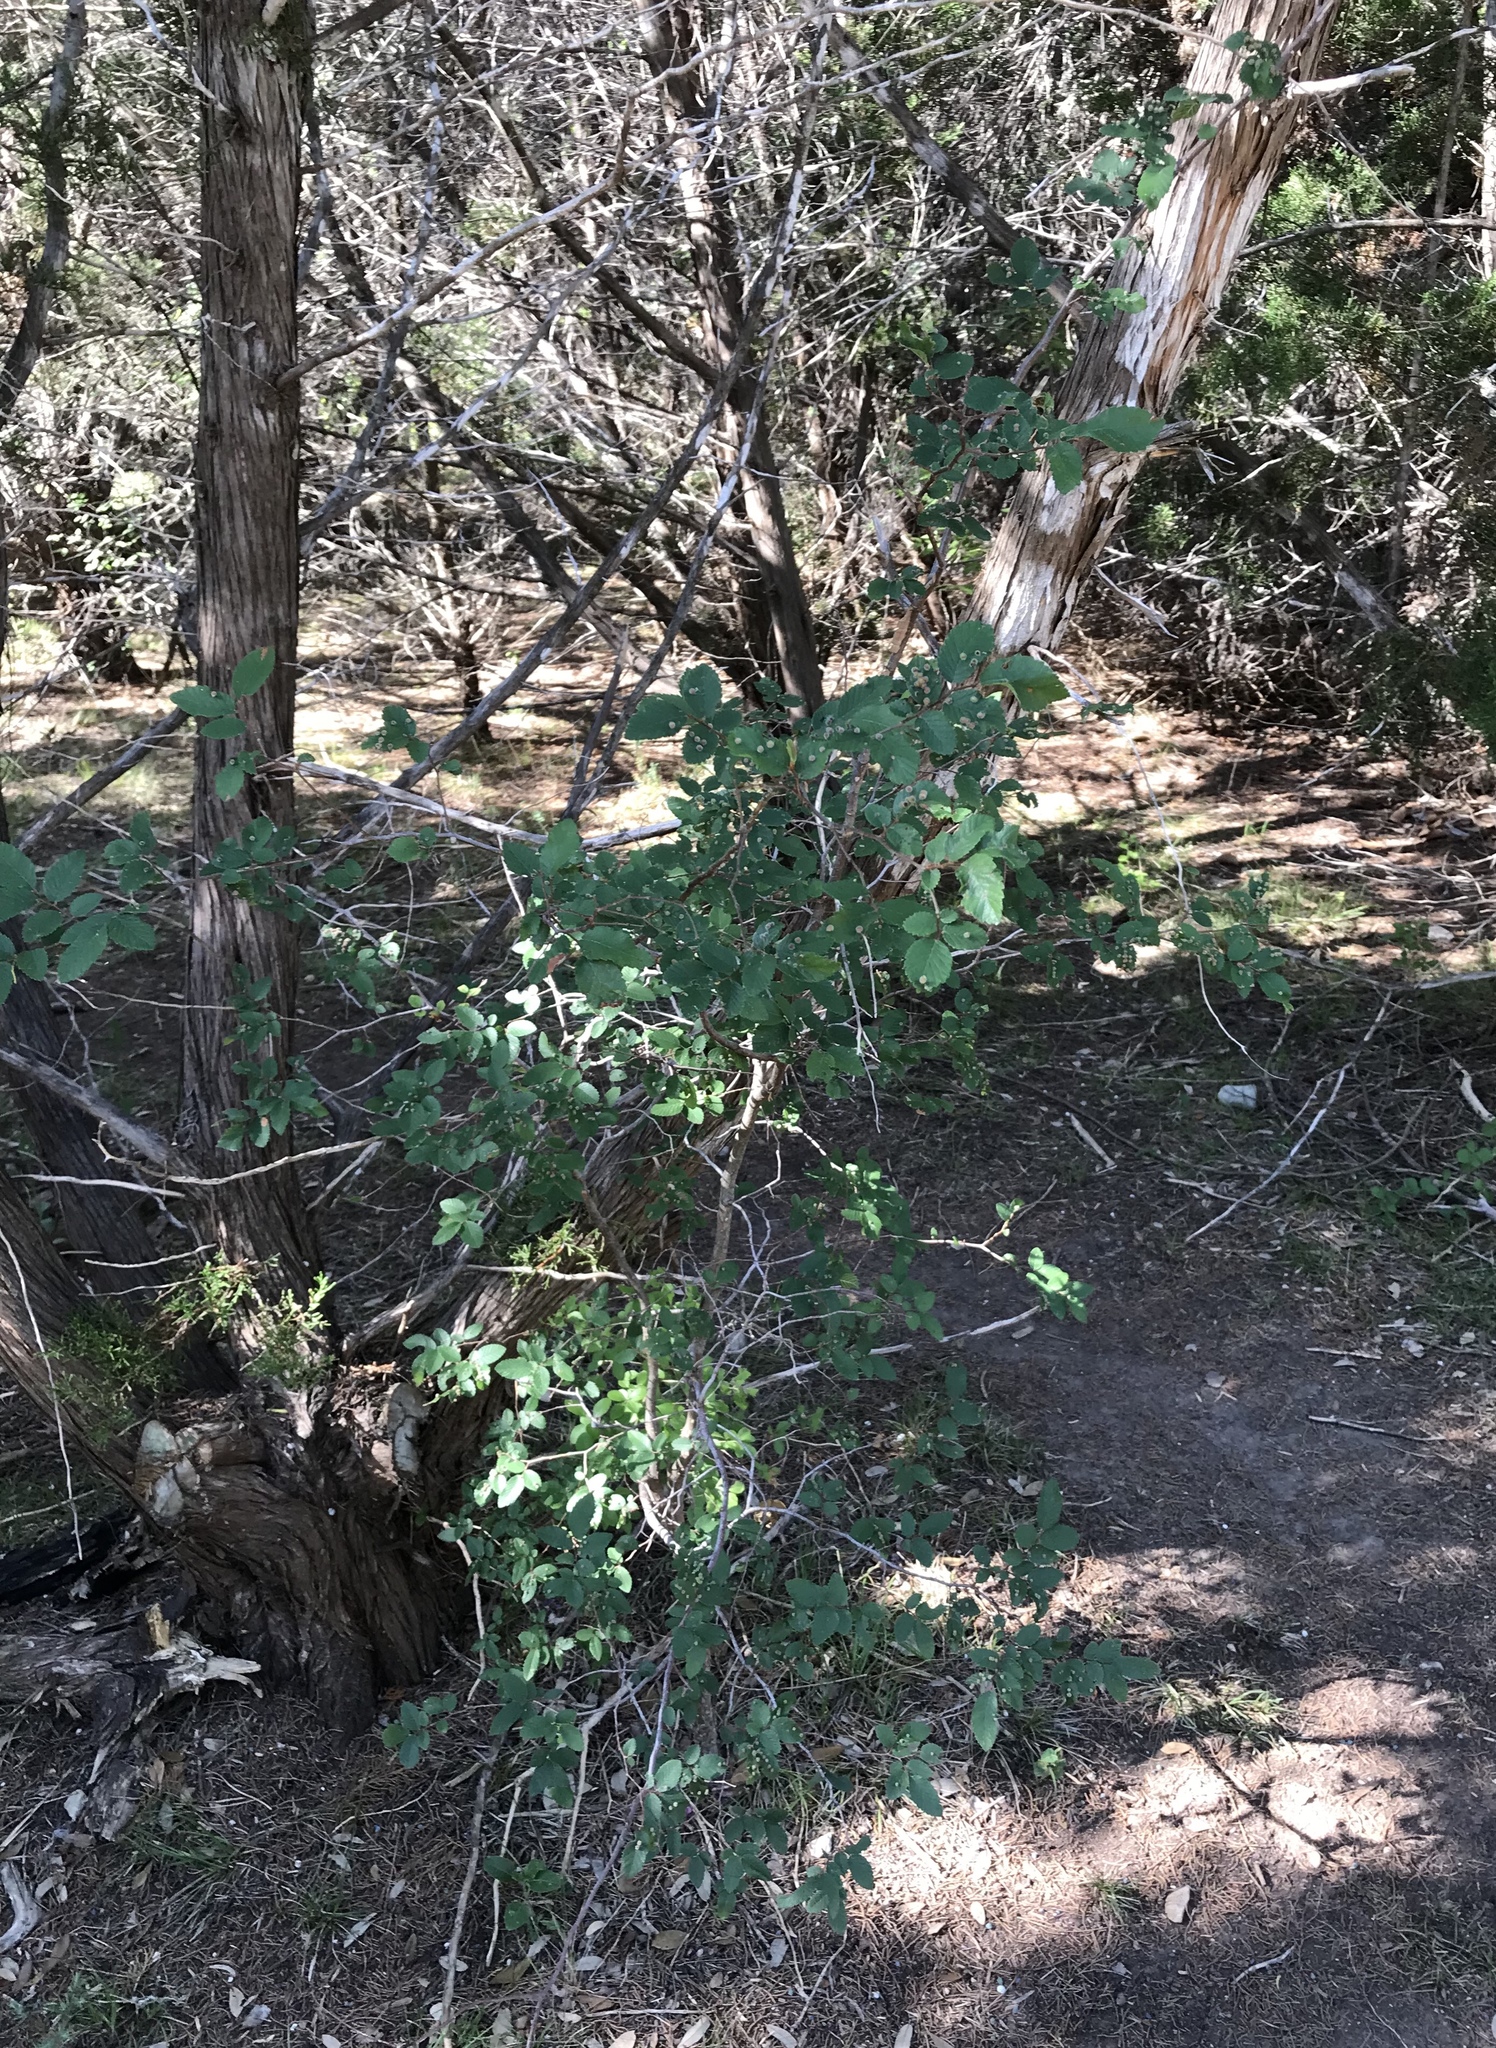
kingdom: Plantae
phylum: Tracheophyta
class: Magnoliopsida
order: Rosales
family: Ulmaceae
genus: Ulmus
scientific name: Ulmus crassifolia
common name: Basket elm
